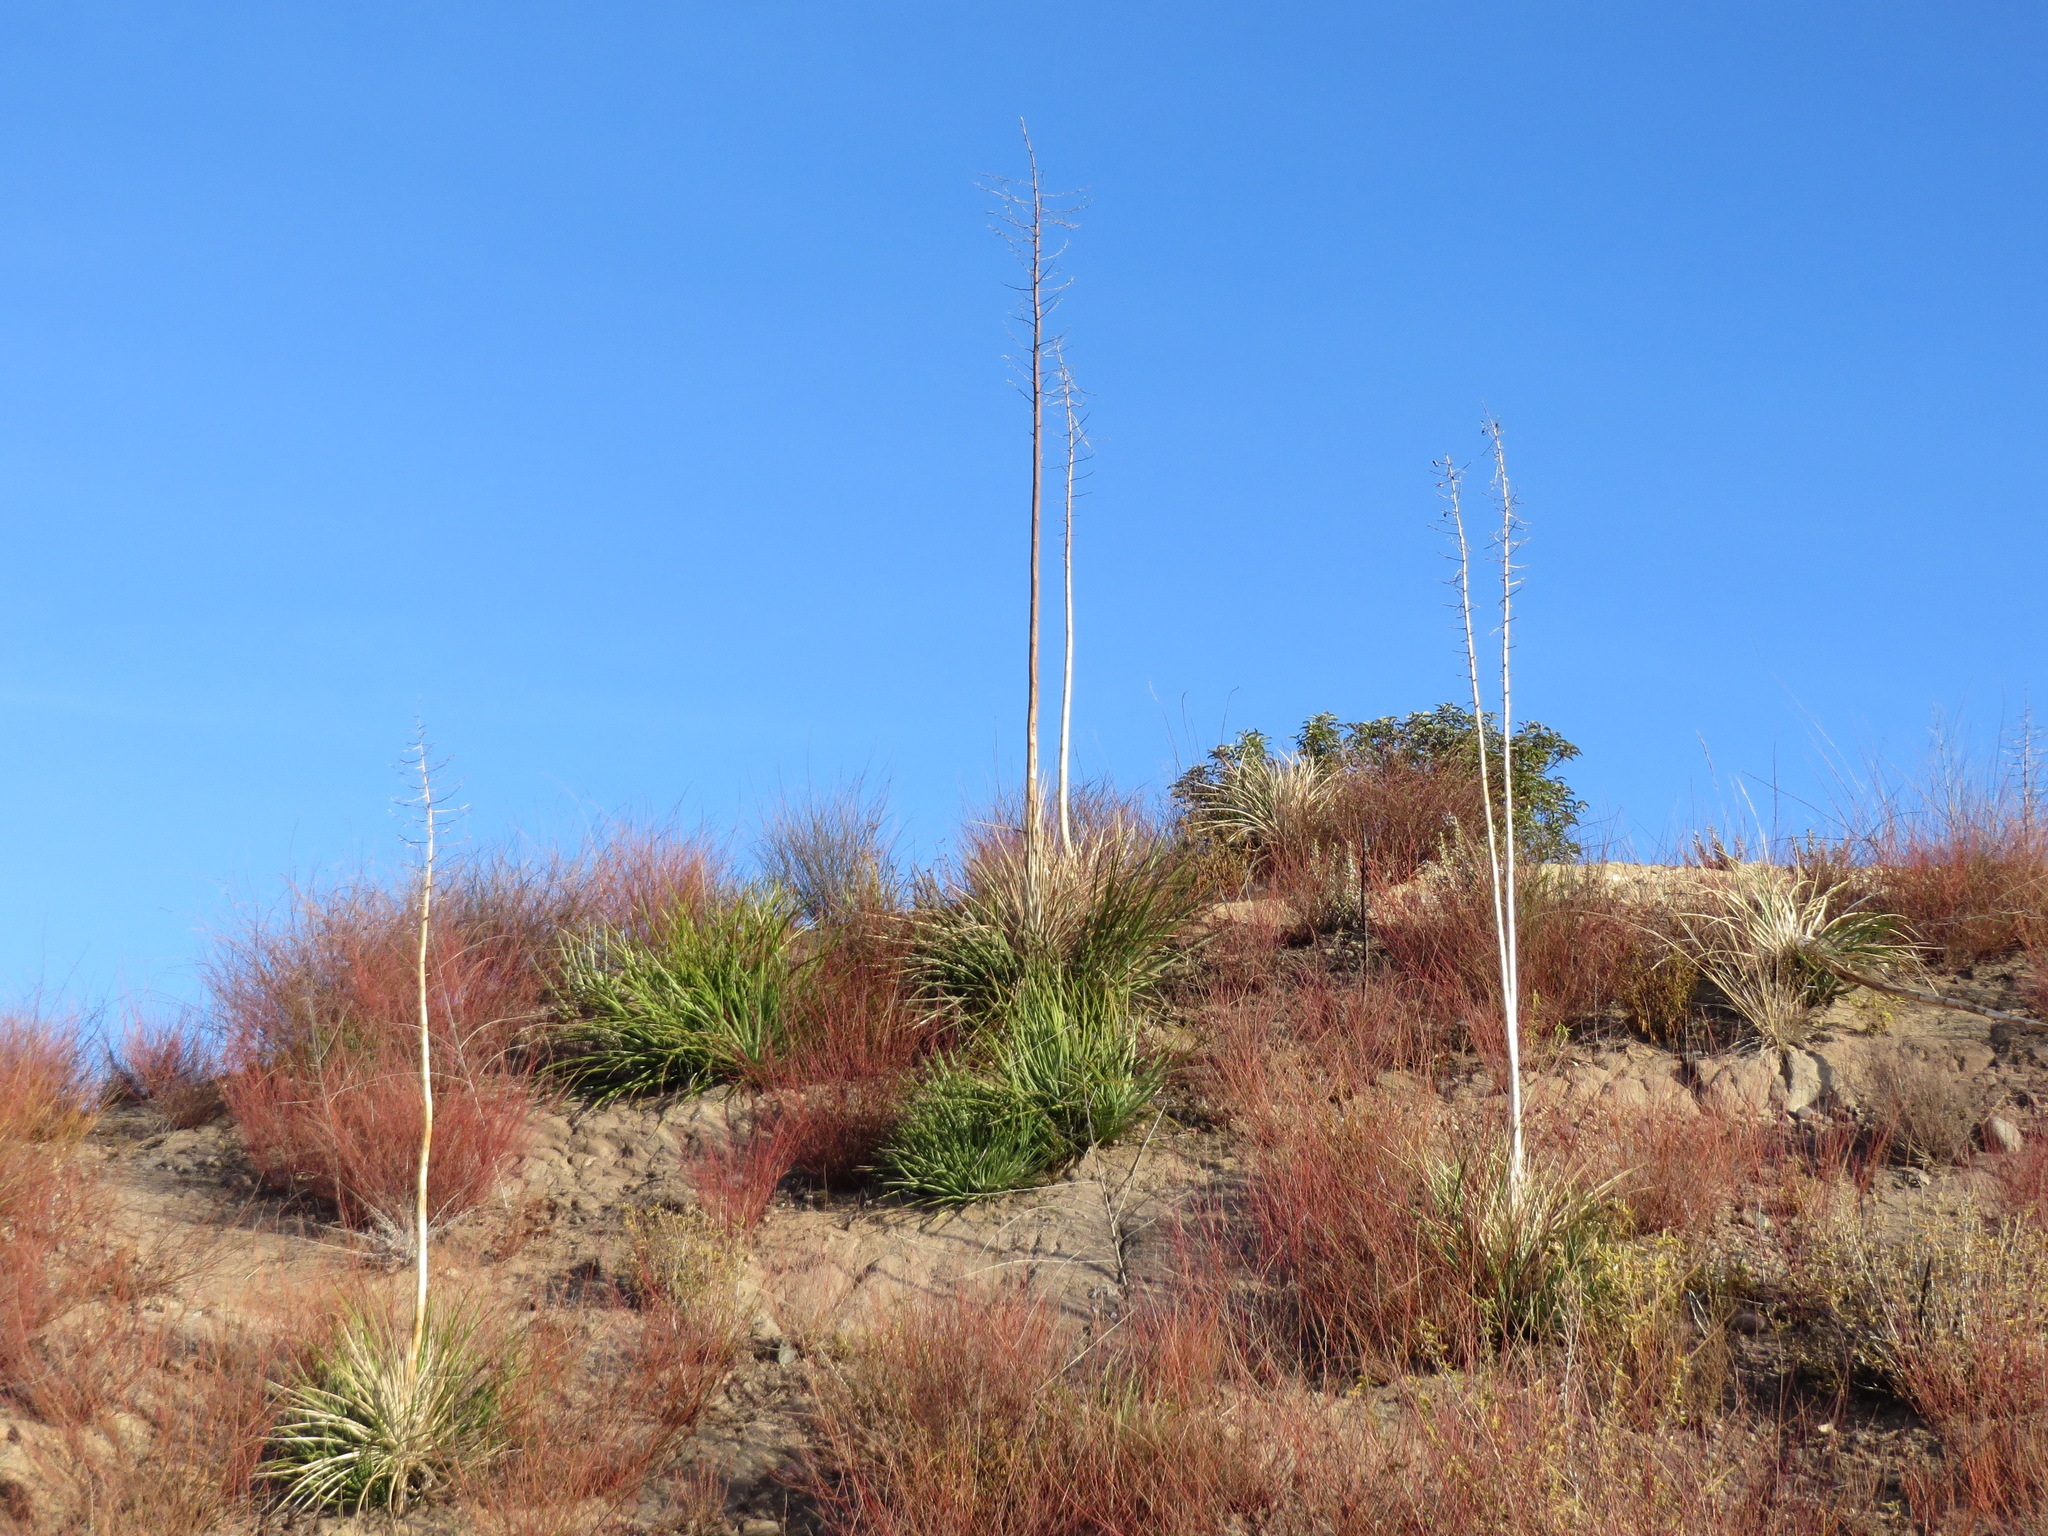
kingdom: Plantae
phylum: Tracheophyta
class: Liliopsida
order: Asparagales
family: Asparagaceae
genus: Hesperoyucca
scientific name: Hesperoyucca whipplei
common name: Our lord's-candle
